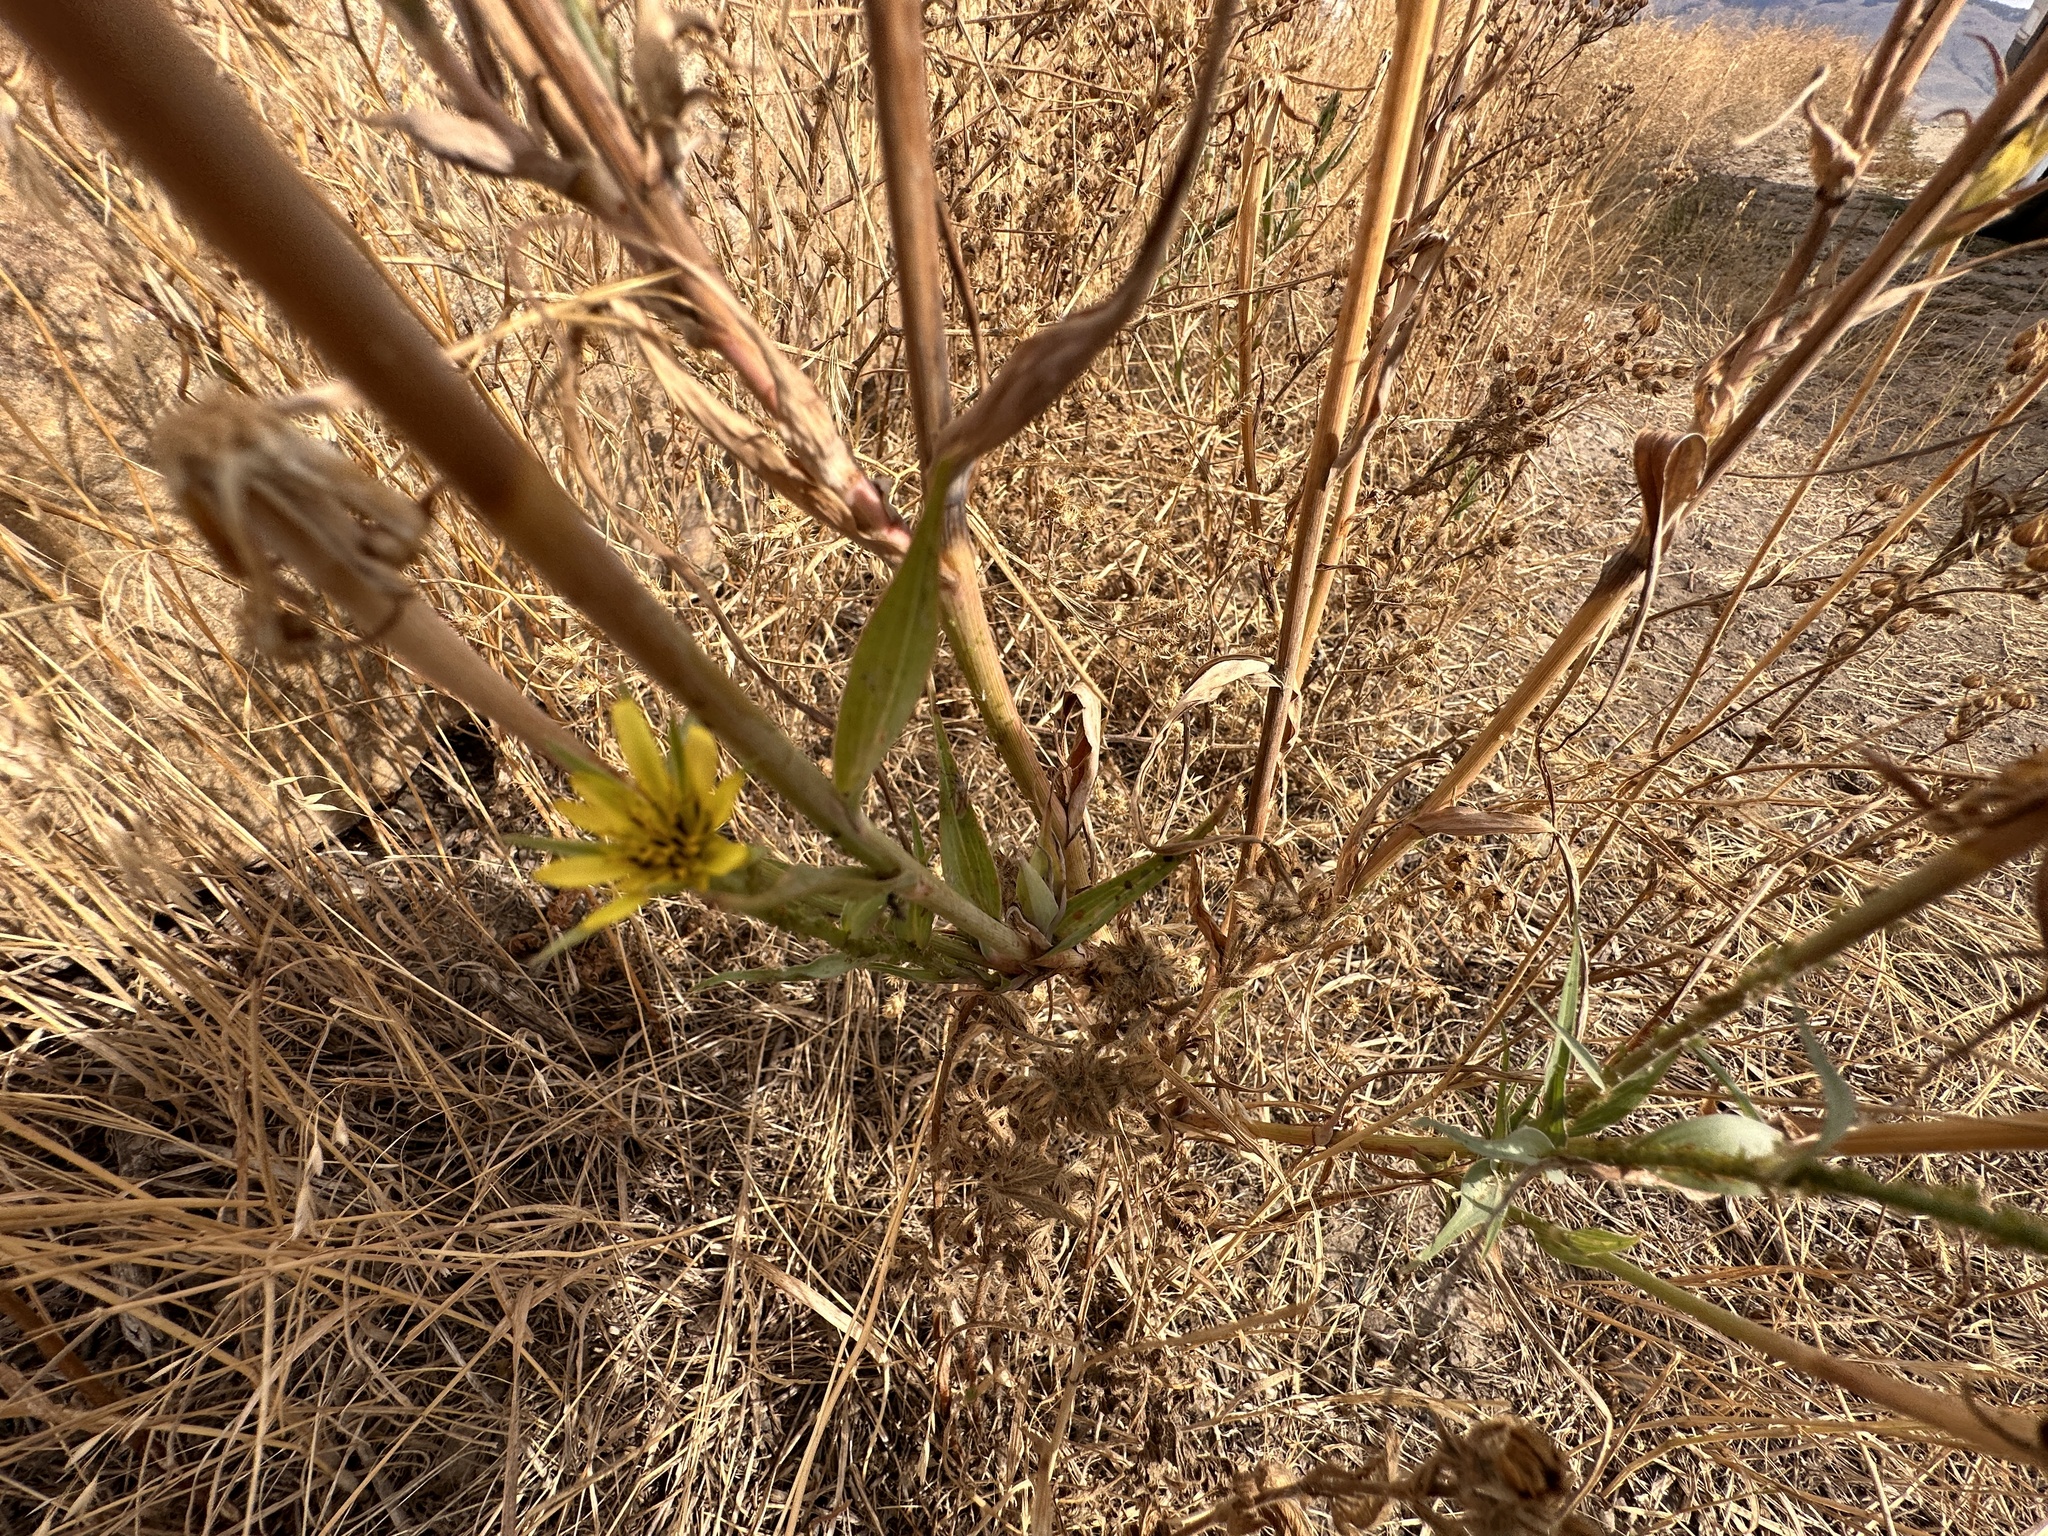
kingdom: Plantae
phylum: Tracheophyta
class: Magnoliopsida
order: Asterales
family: Asteraceae
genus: Tragopogon
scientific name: Tragopogon dubius
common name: Yellow salsify
